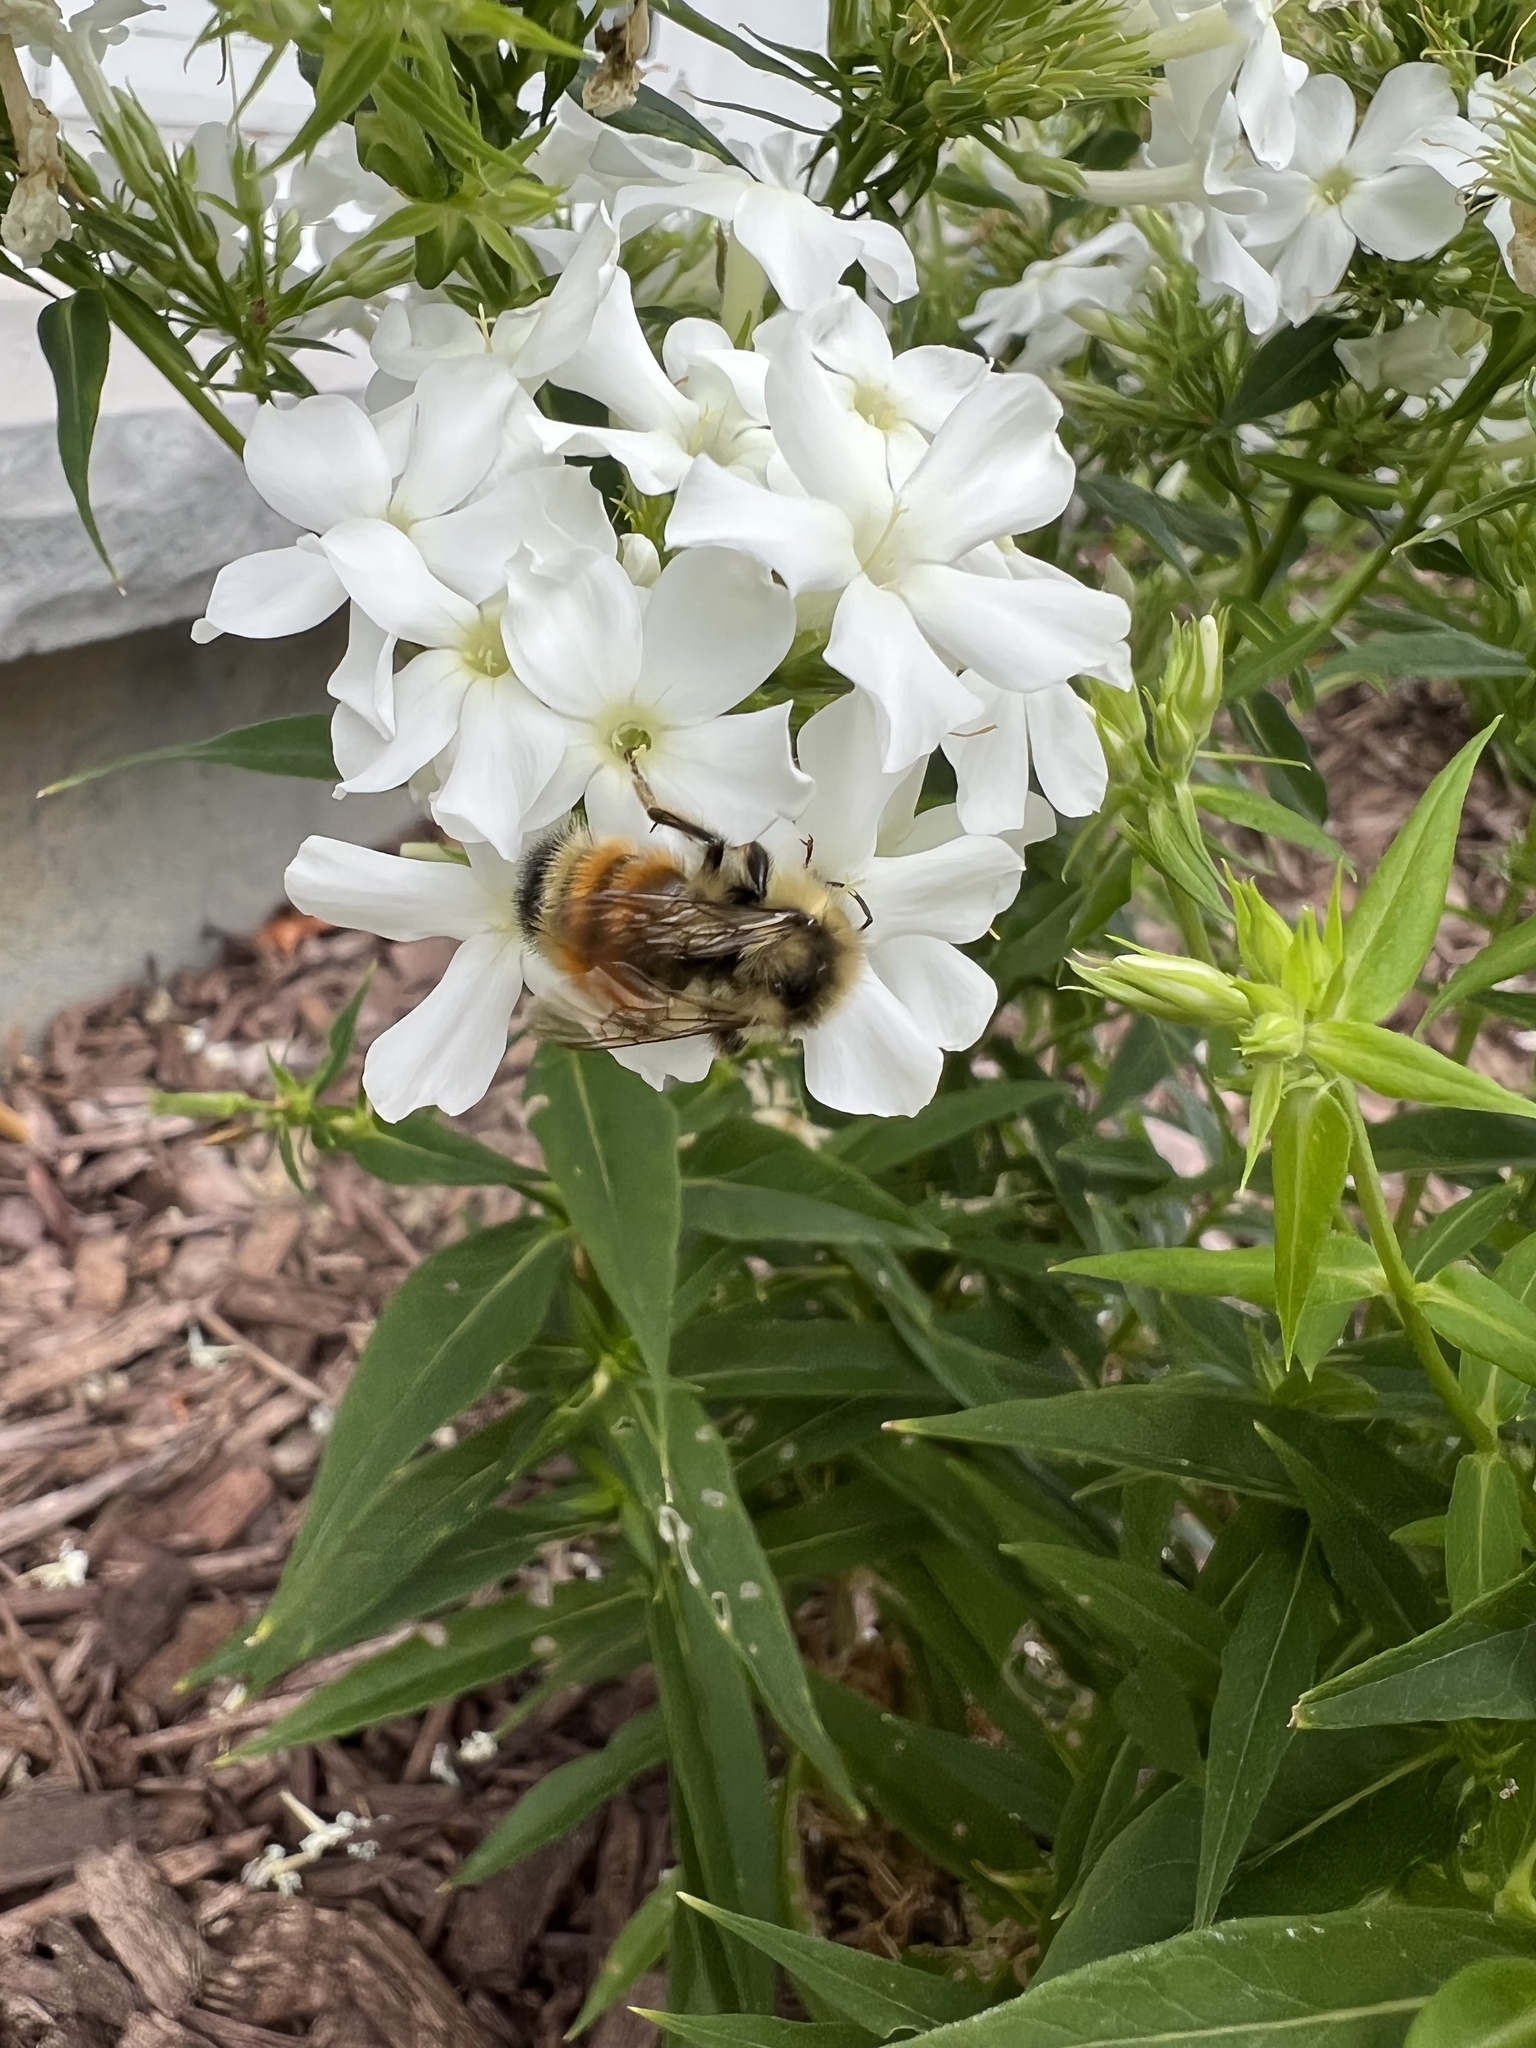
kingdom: Animalia
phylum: Arthropoda
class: Insecta
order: Hymenoptera
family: Apidae
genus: Bombus
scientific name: Bombus ternarius
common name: Tri-colored bumble bee
